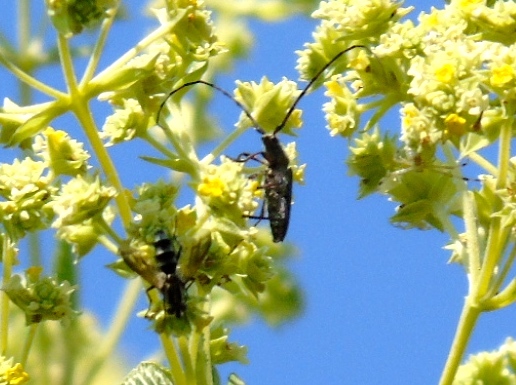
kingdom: Animalia
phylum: Arthropoda
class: Insecta
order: Coleoptera
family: Cerambycidae
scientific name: Cerambycidae
